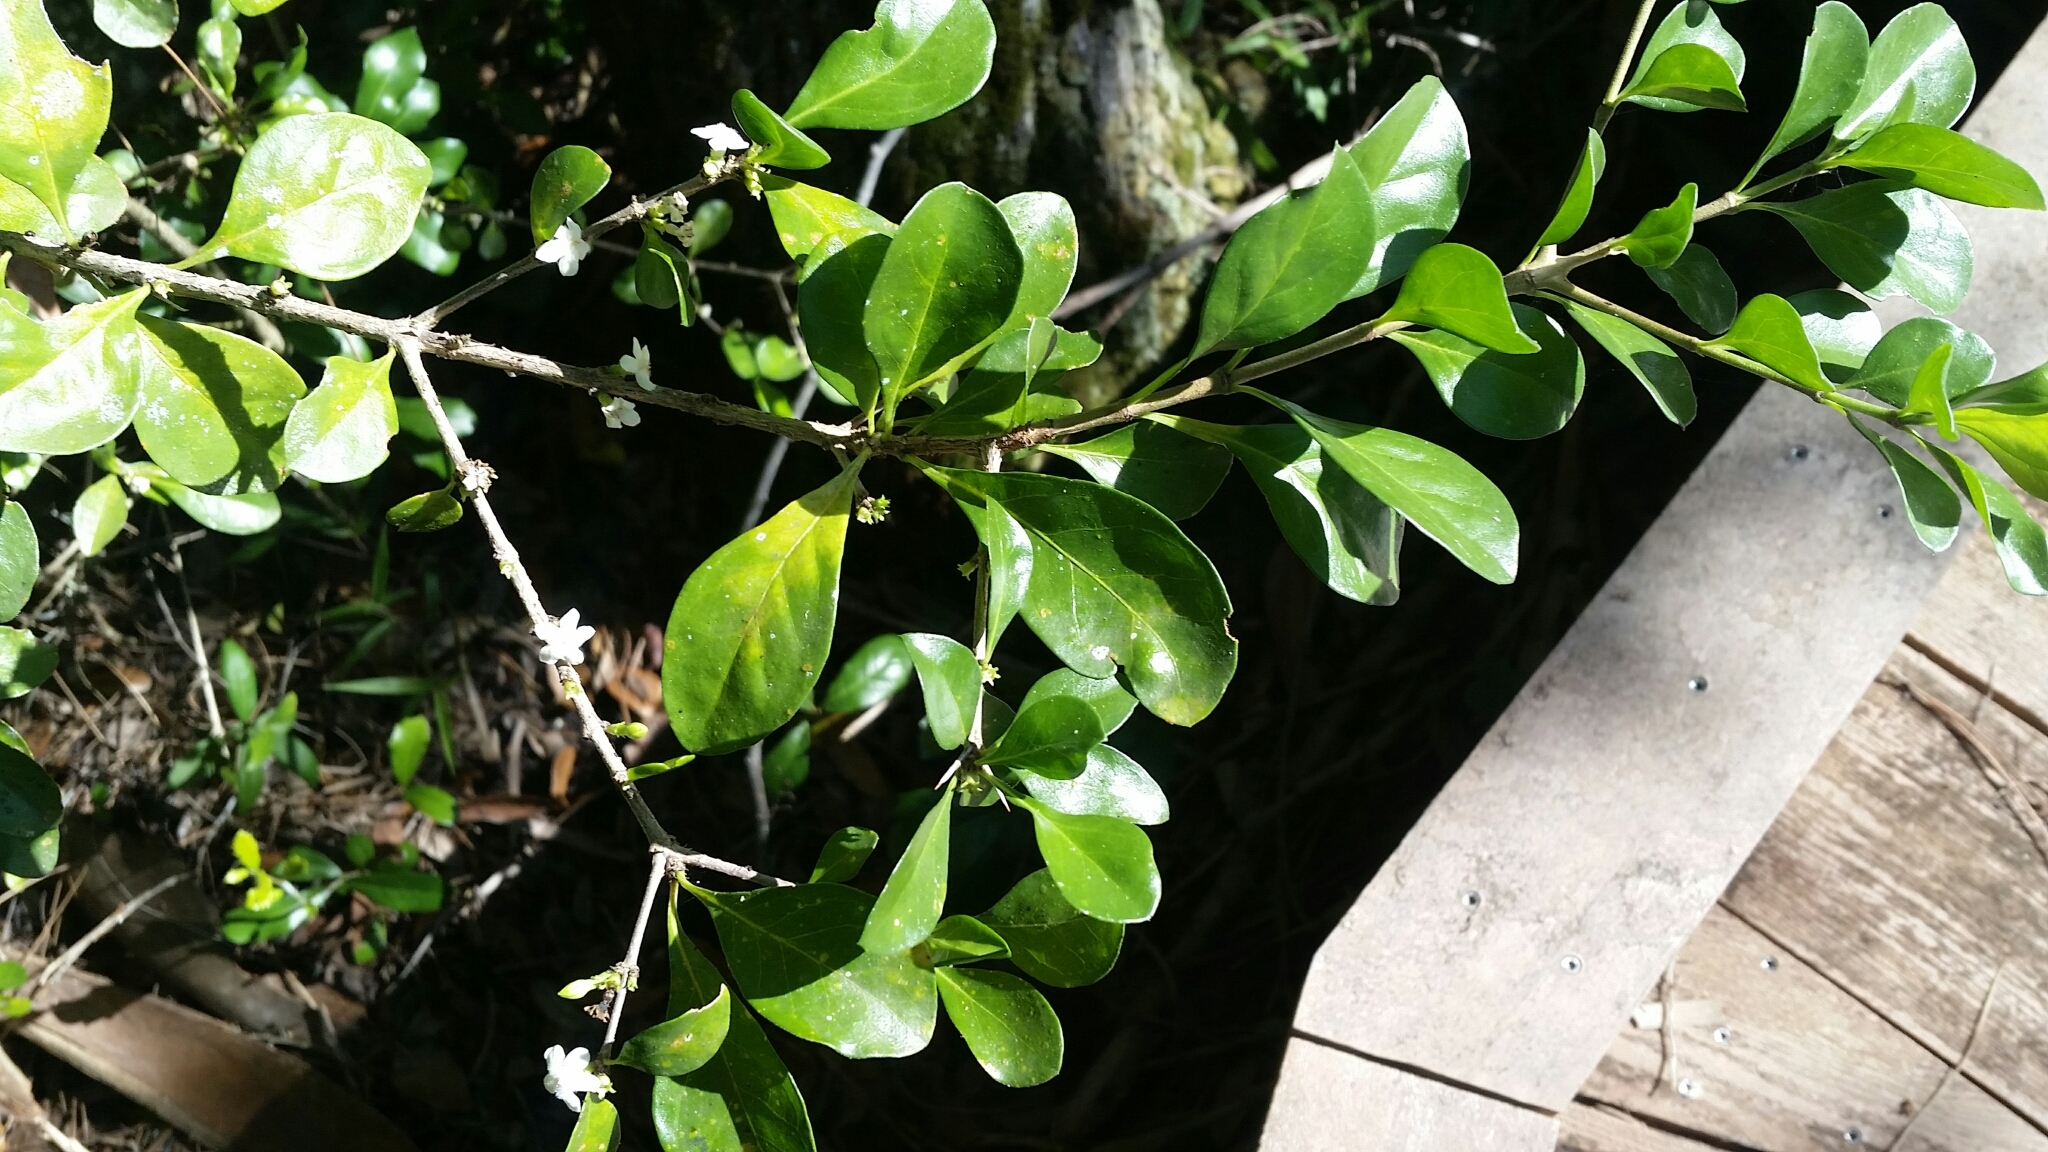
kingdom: Plantae
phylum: Tracheophyta
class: Magnoliopsida
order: Gentianales
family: Rubiaceae
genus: Randia
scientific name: Randia aculeata
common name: Inkberry
